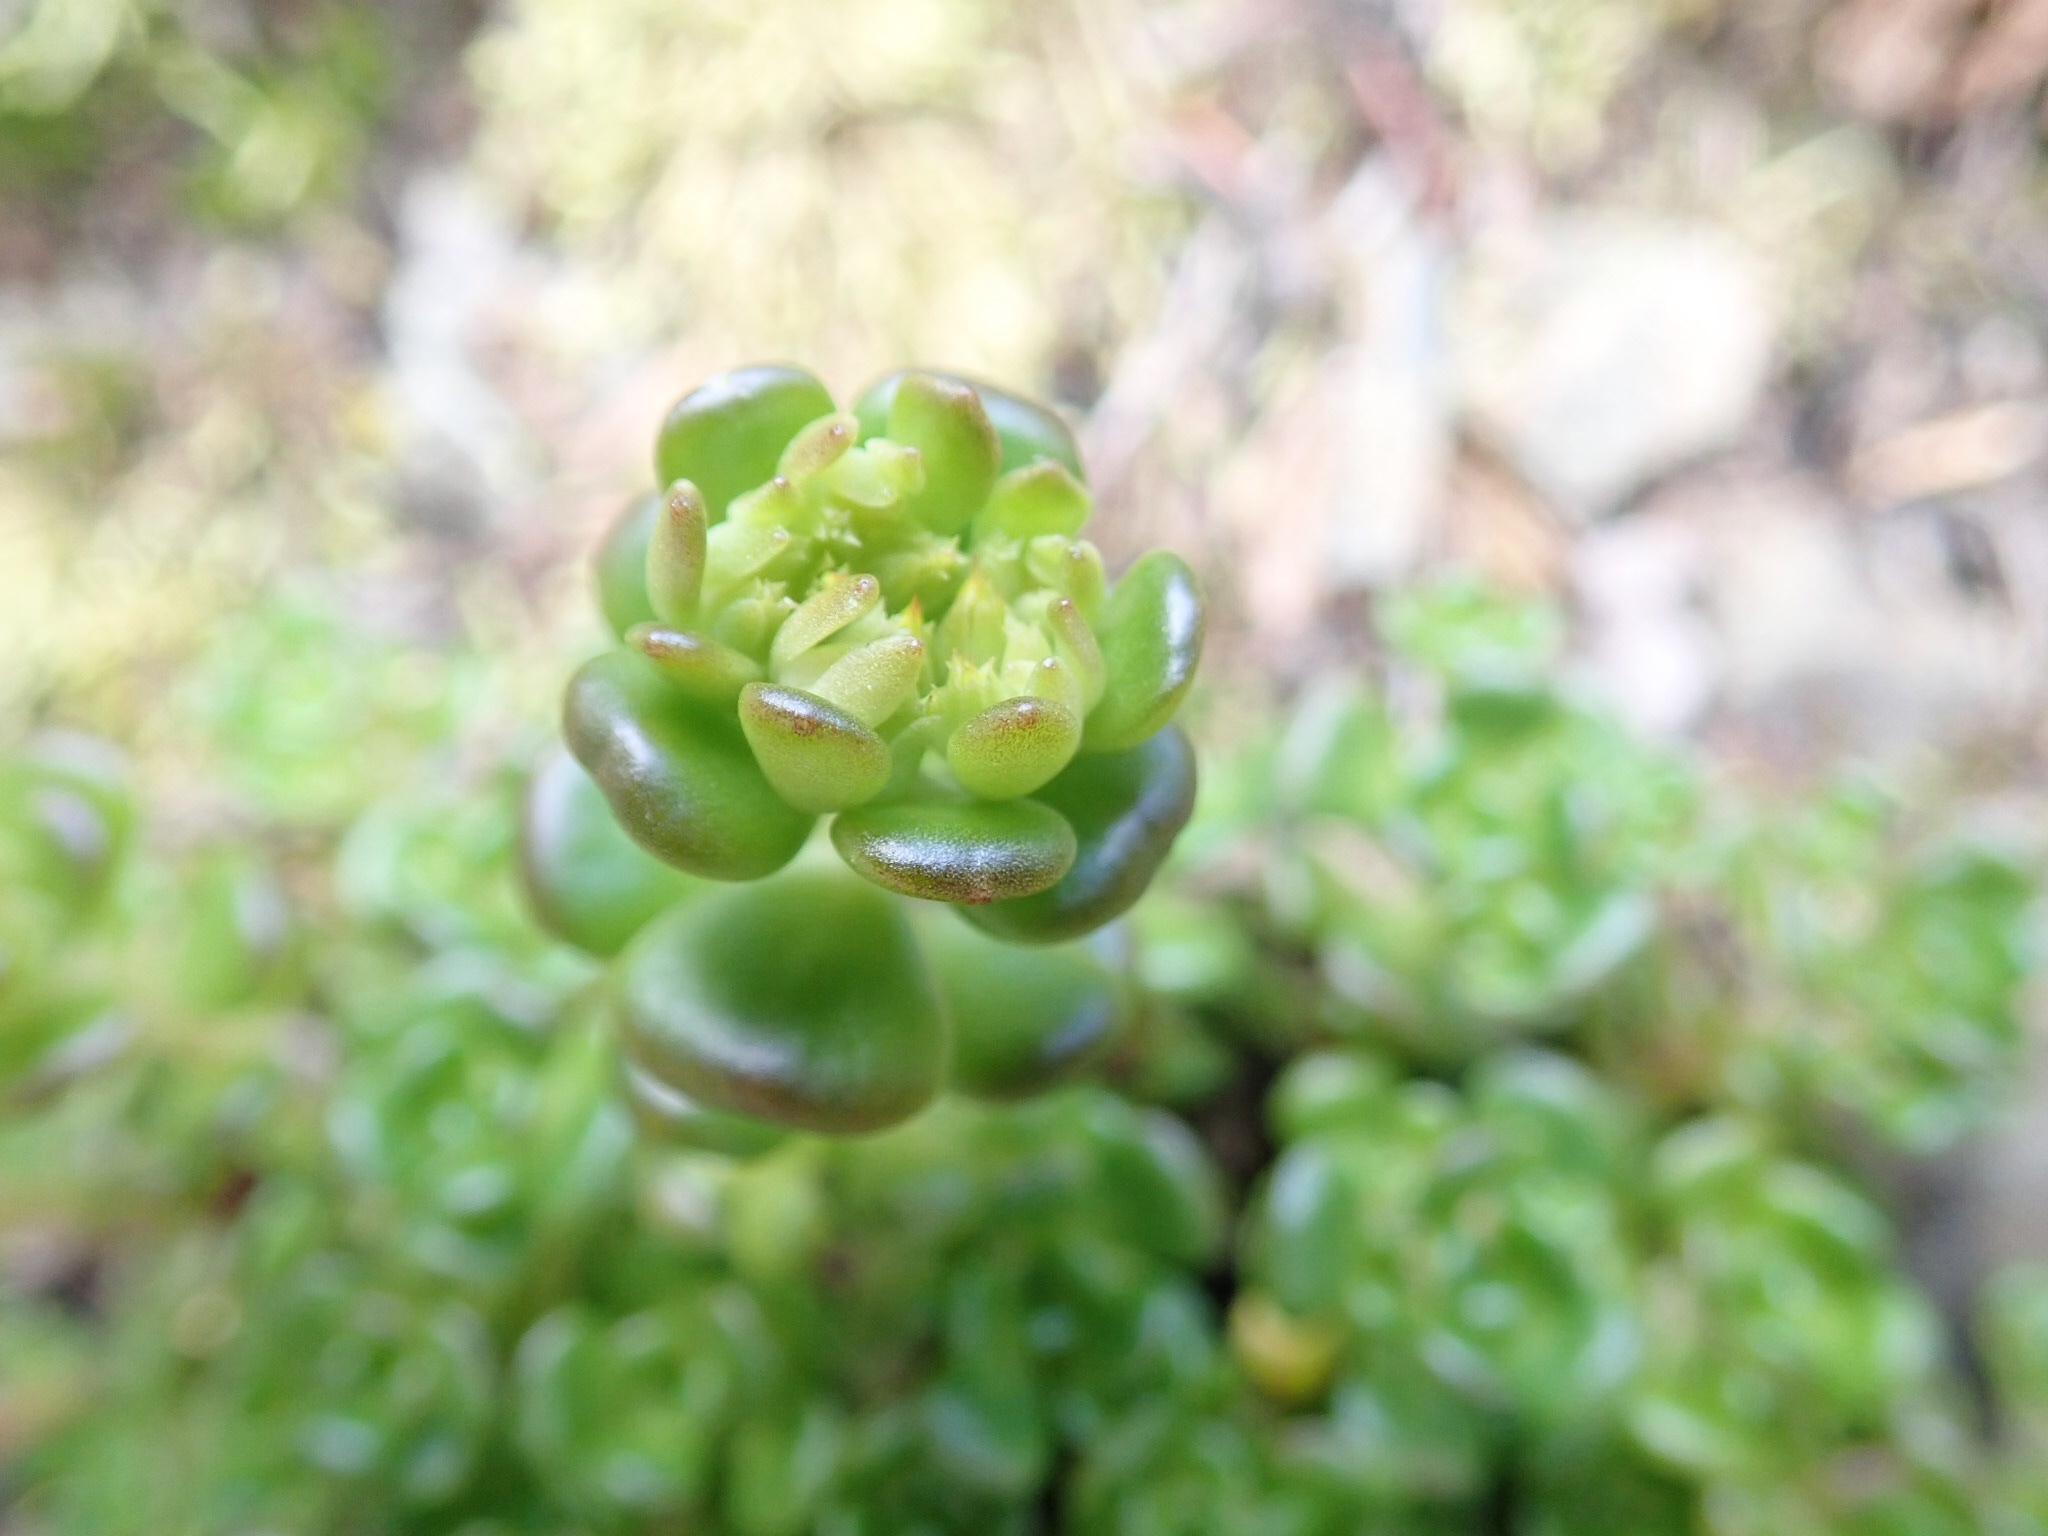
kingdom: Plantae
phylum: Tracheophyta
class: Magnoliopsida
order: Saxifragales
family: Crassulaceae
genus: Sedum
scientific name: Sedum oreganum
